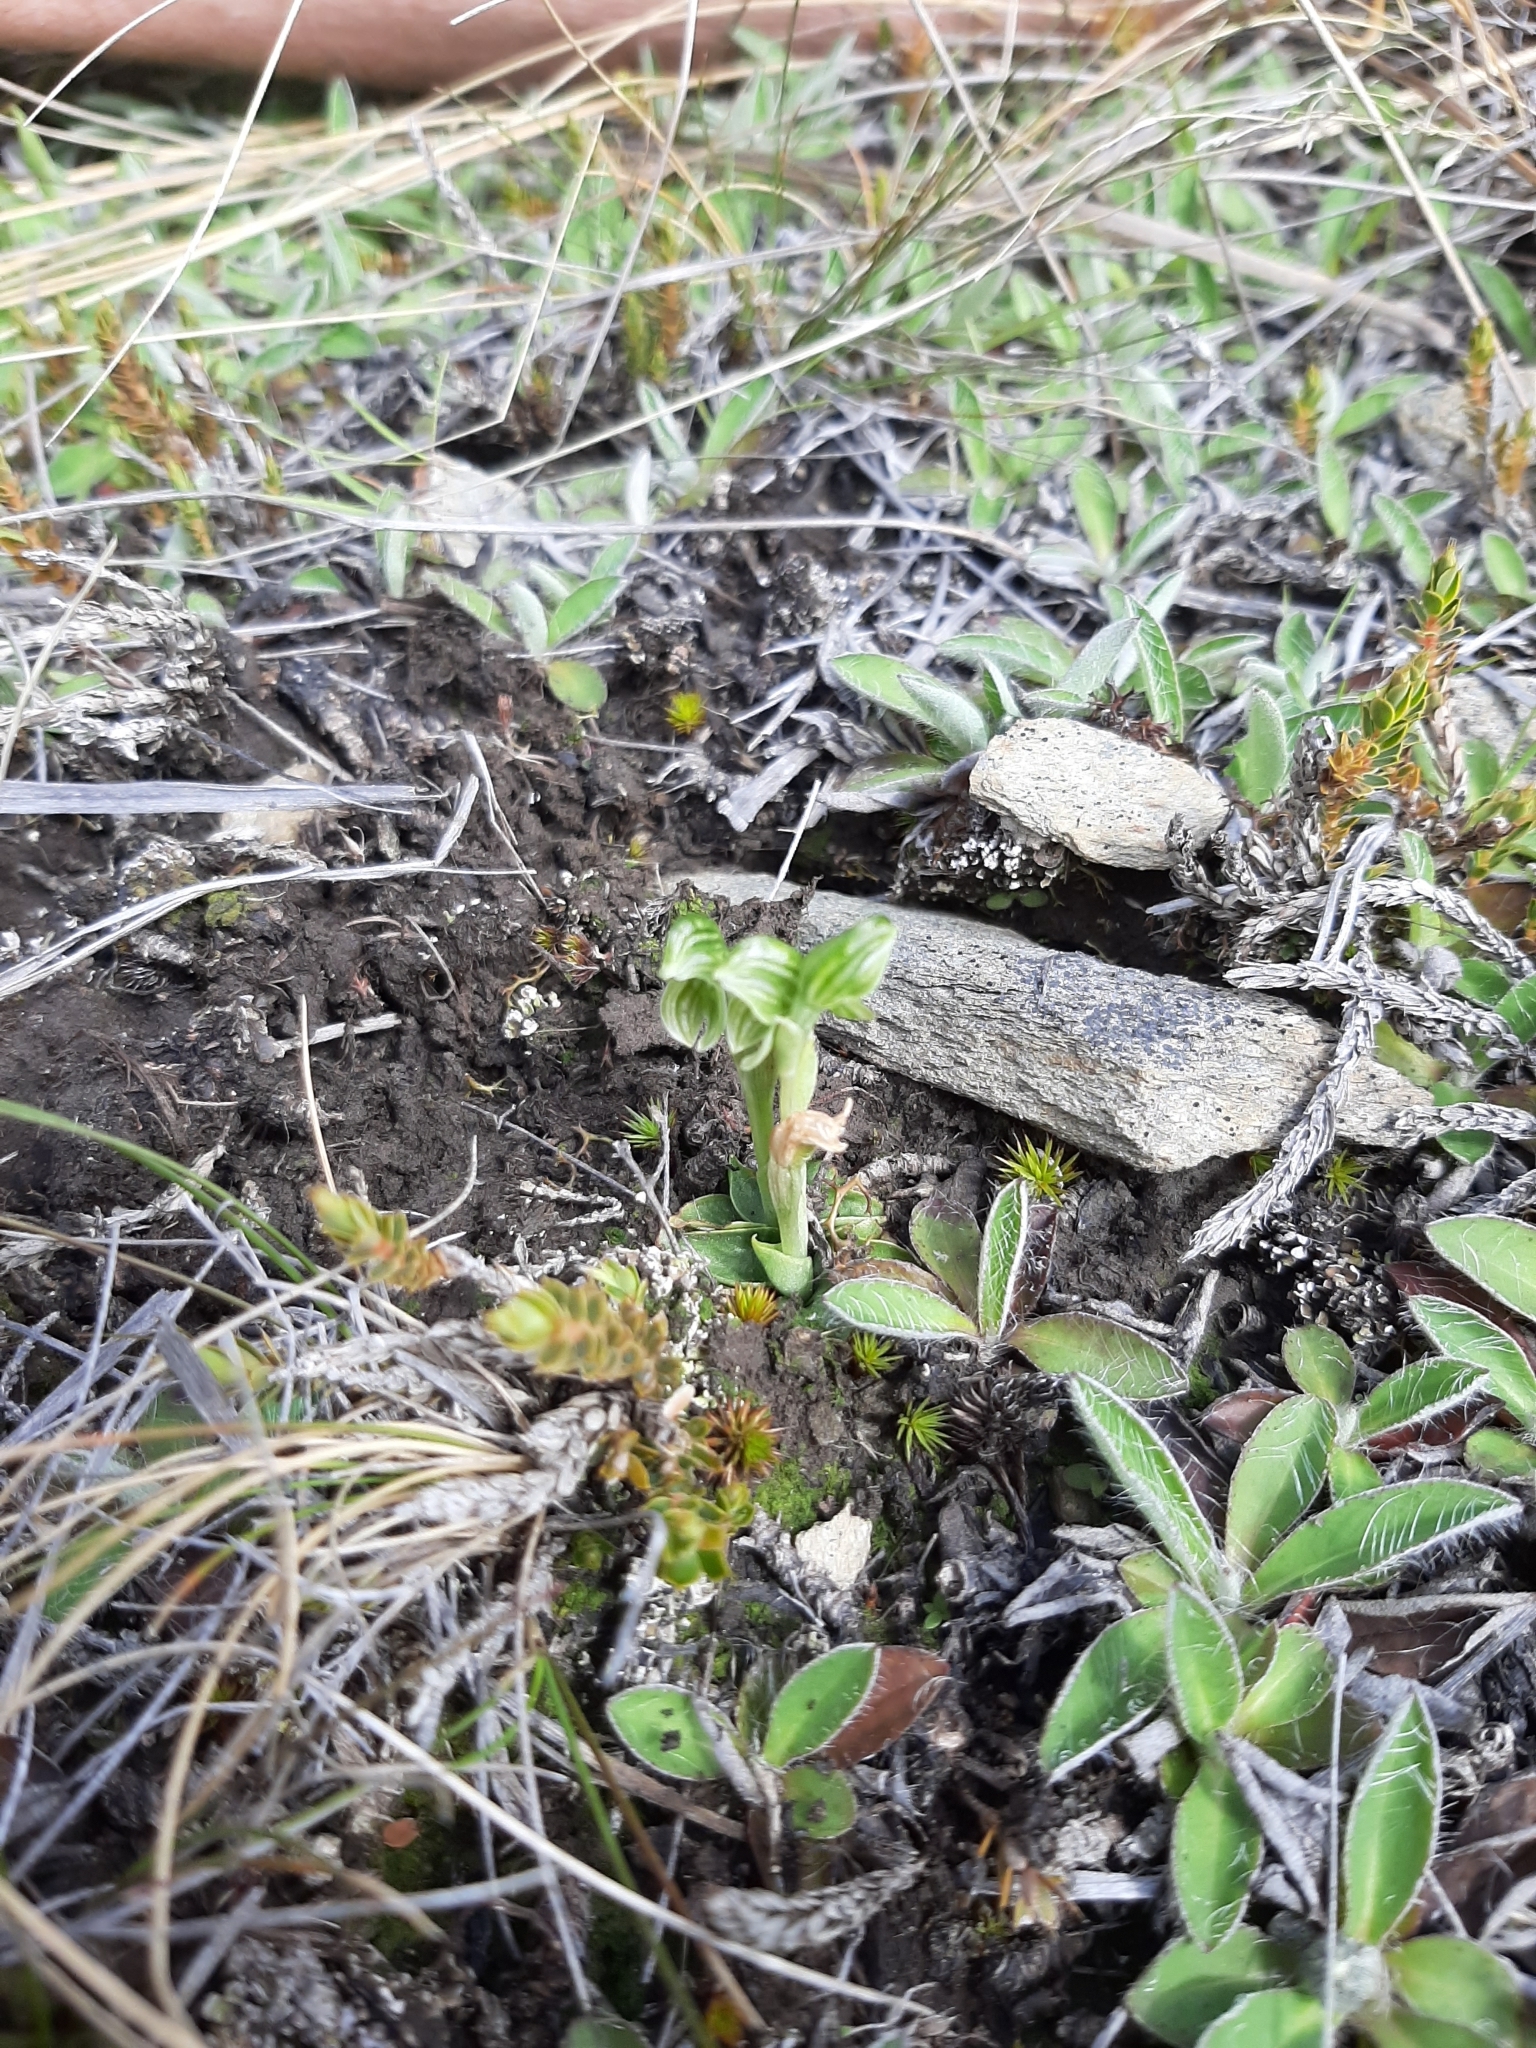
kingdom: Plantae
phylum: Tracheophyta
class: Liliopsida
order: Asparagales
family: Orchidaceae
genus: Pterostylis
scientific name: Pterostylis tanypoda
